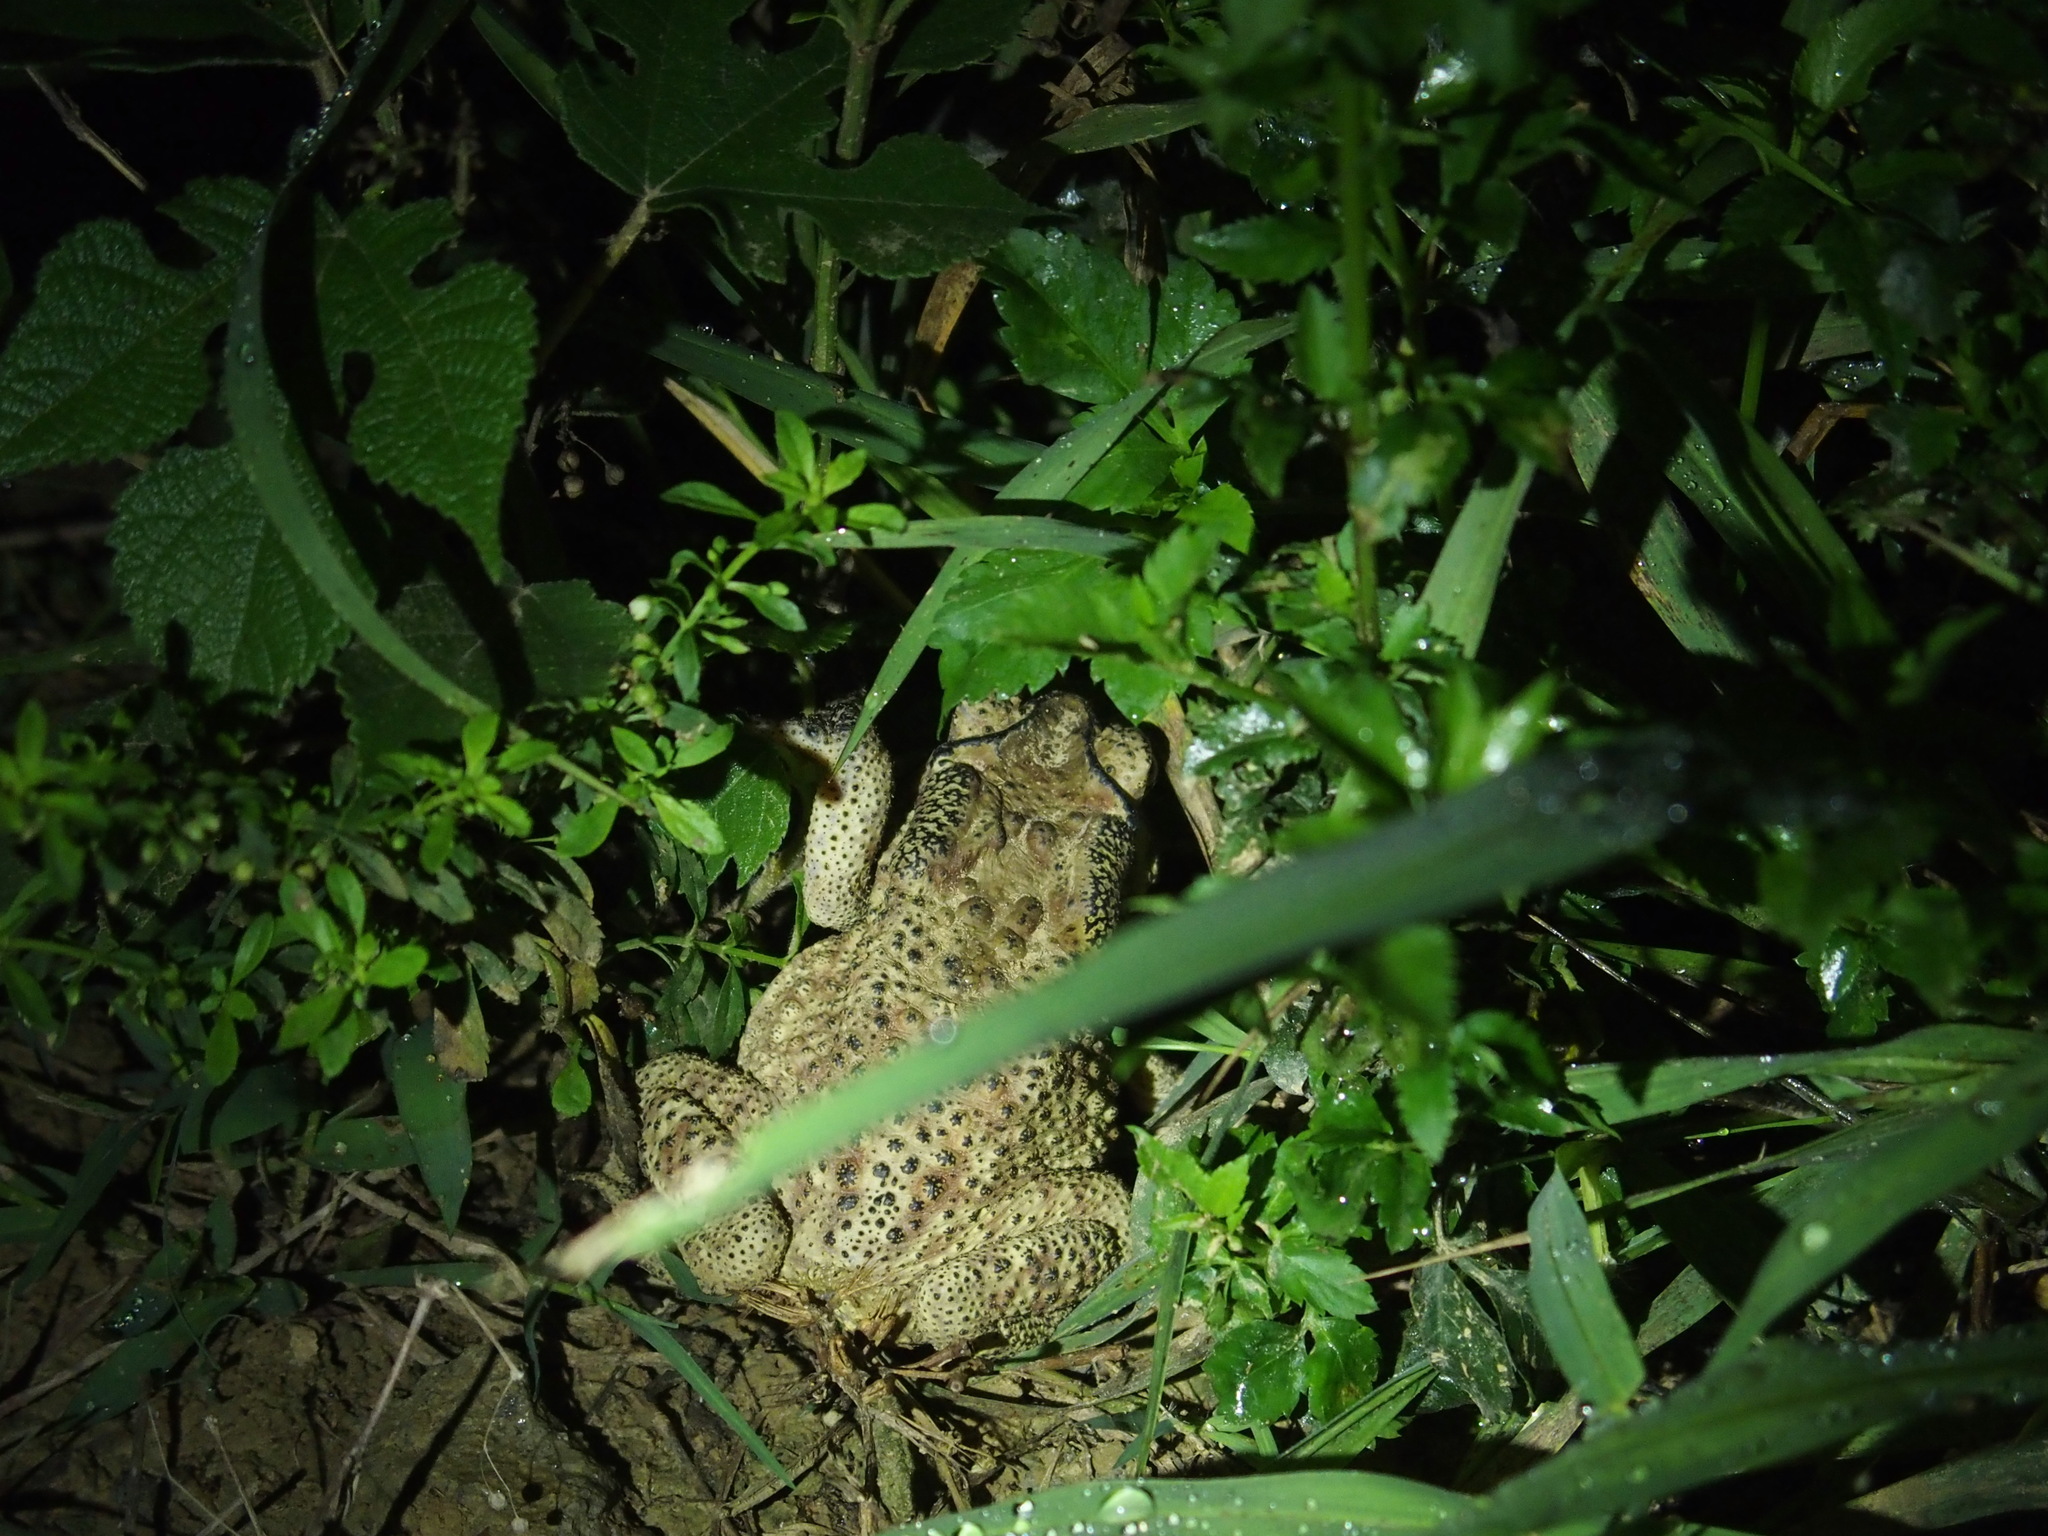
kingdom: Animalia
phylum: Chordata
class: Amphibia
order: Anura
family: Bufonidae
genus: Duttaphrynus
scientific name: Duttaphrynus melanostictus
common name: Common sunda toad
